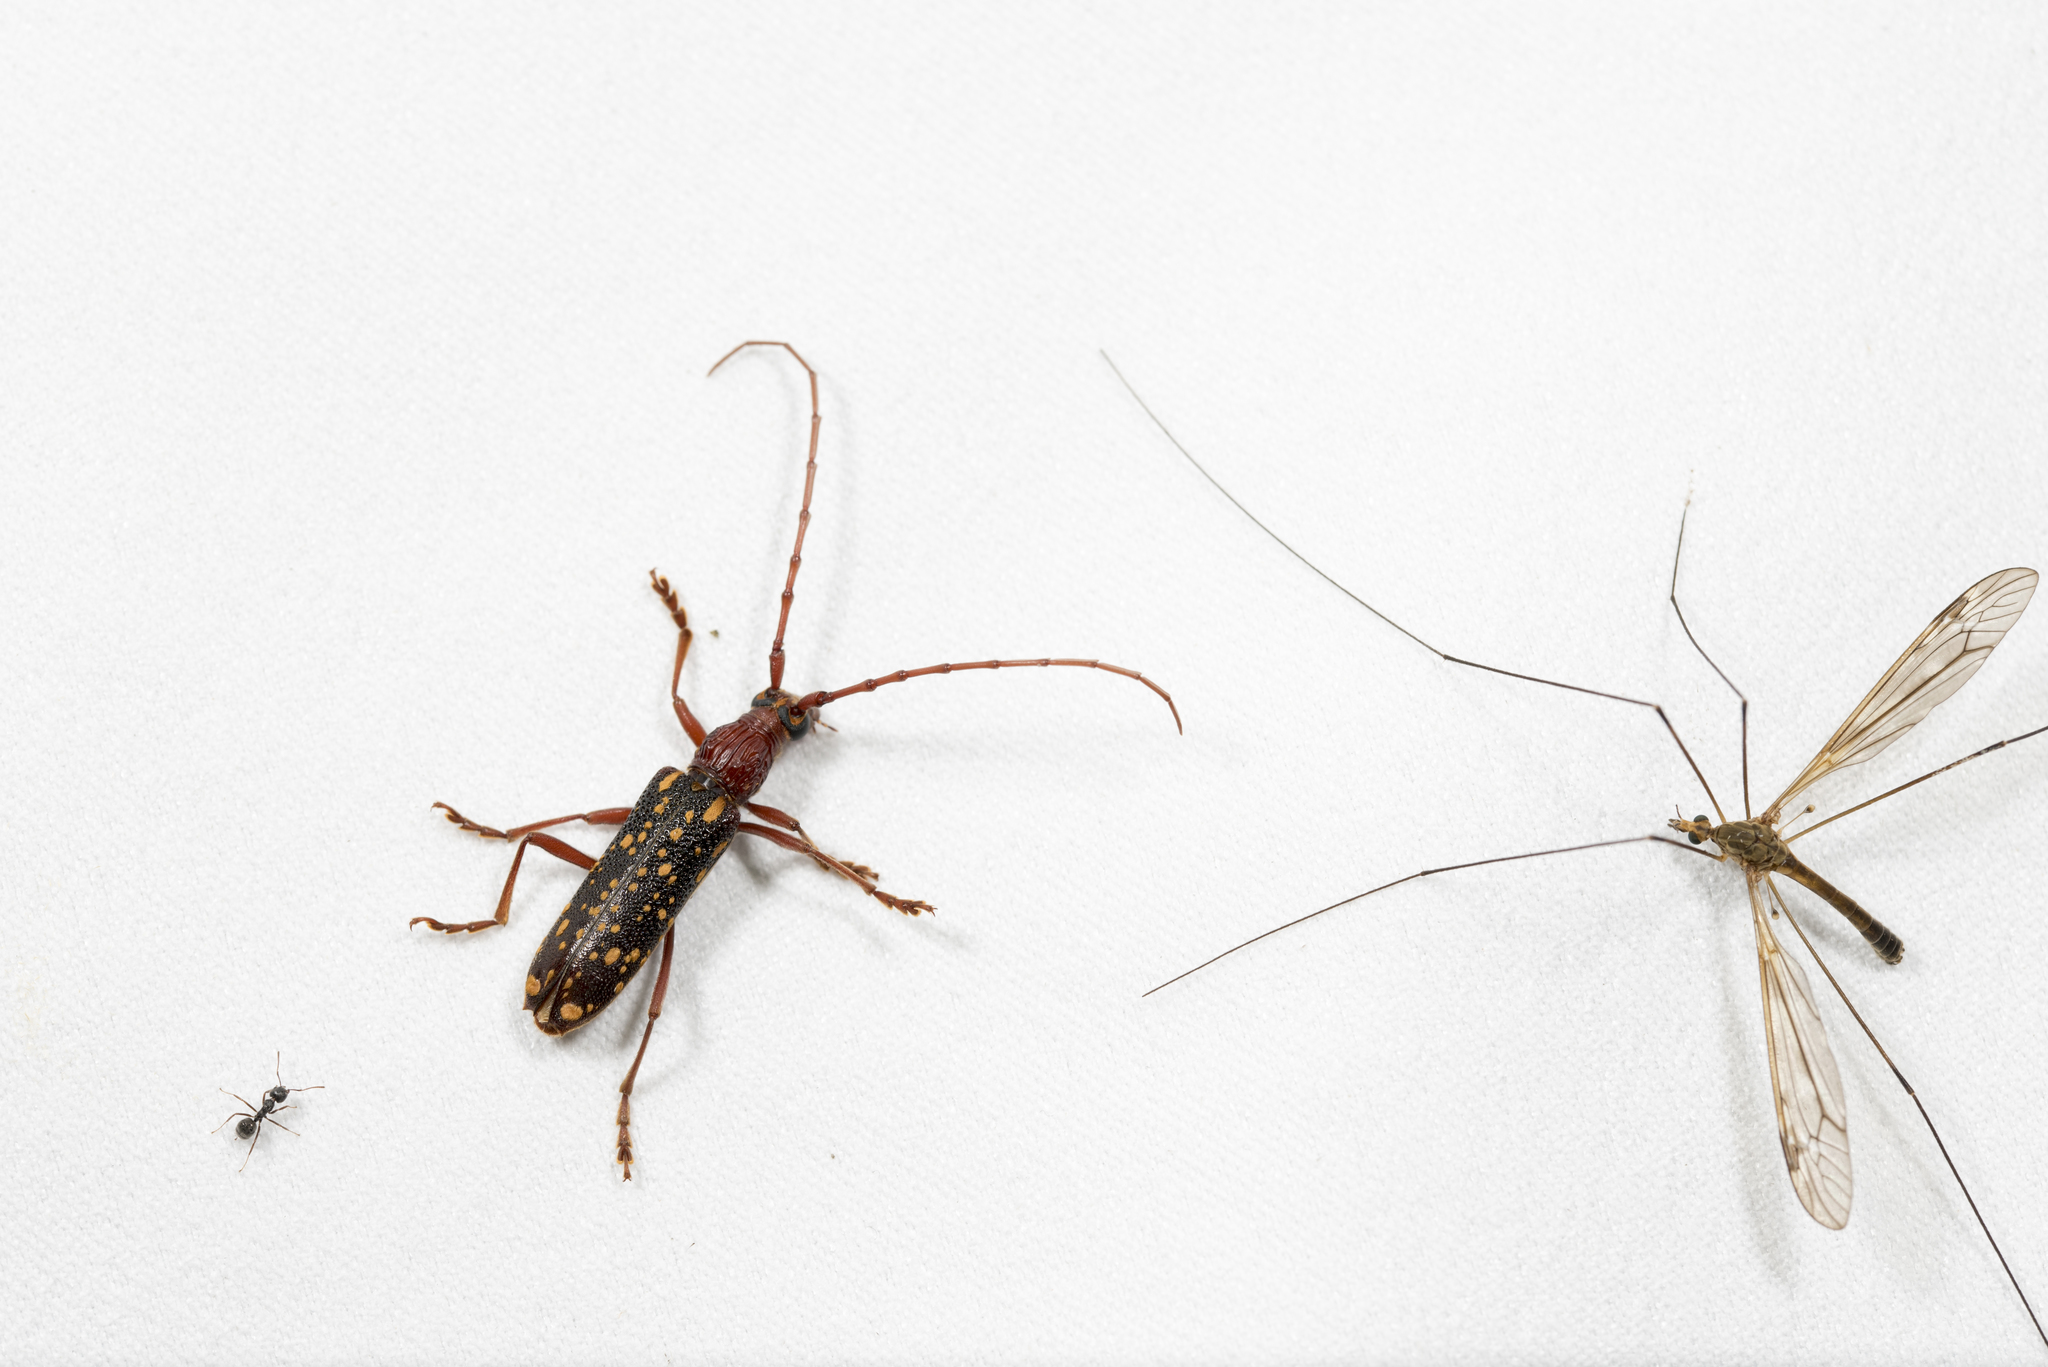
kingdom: Animalia
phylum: Arthropoda
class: Insecta
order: Coleoptera
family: Cerambycidae
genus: Xoanodera
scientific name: Xoanodera maculata
